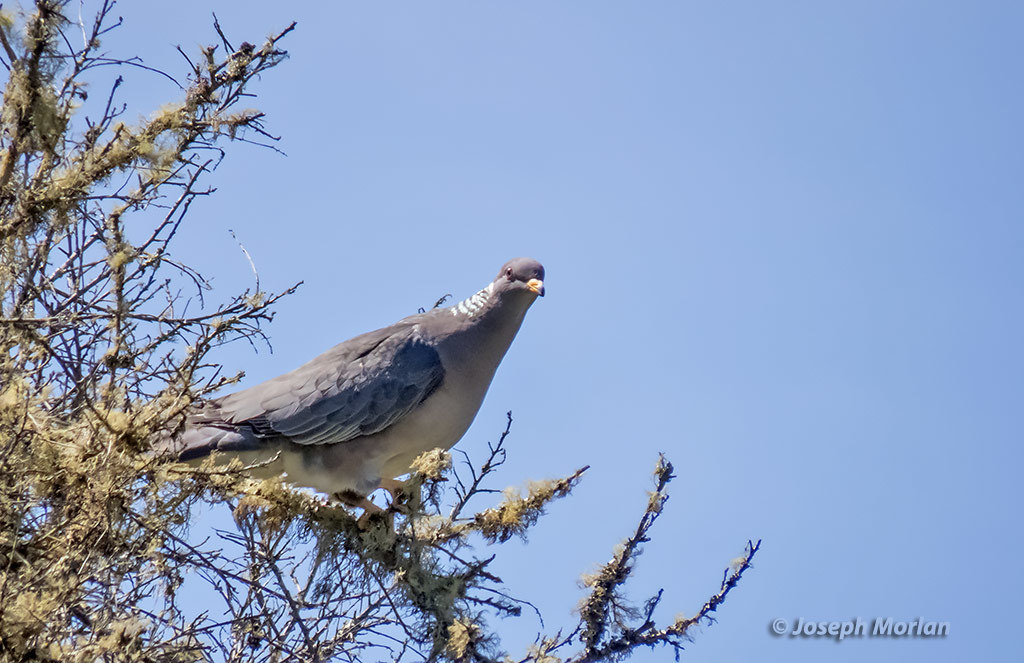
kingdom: Animalia
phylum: Chordata
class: Aves
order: Columbiformes
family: Columbidae
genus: Patagioenas
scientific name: Patagioenas fasciata
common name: Band-tailed pigeon
